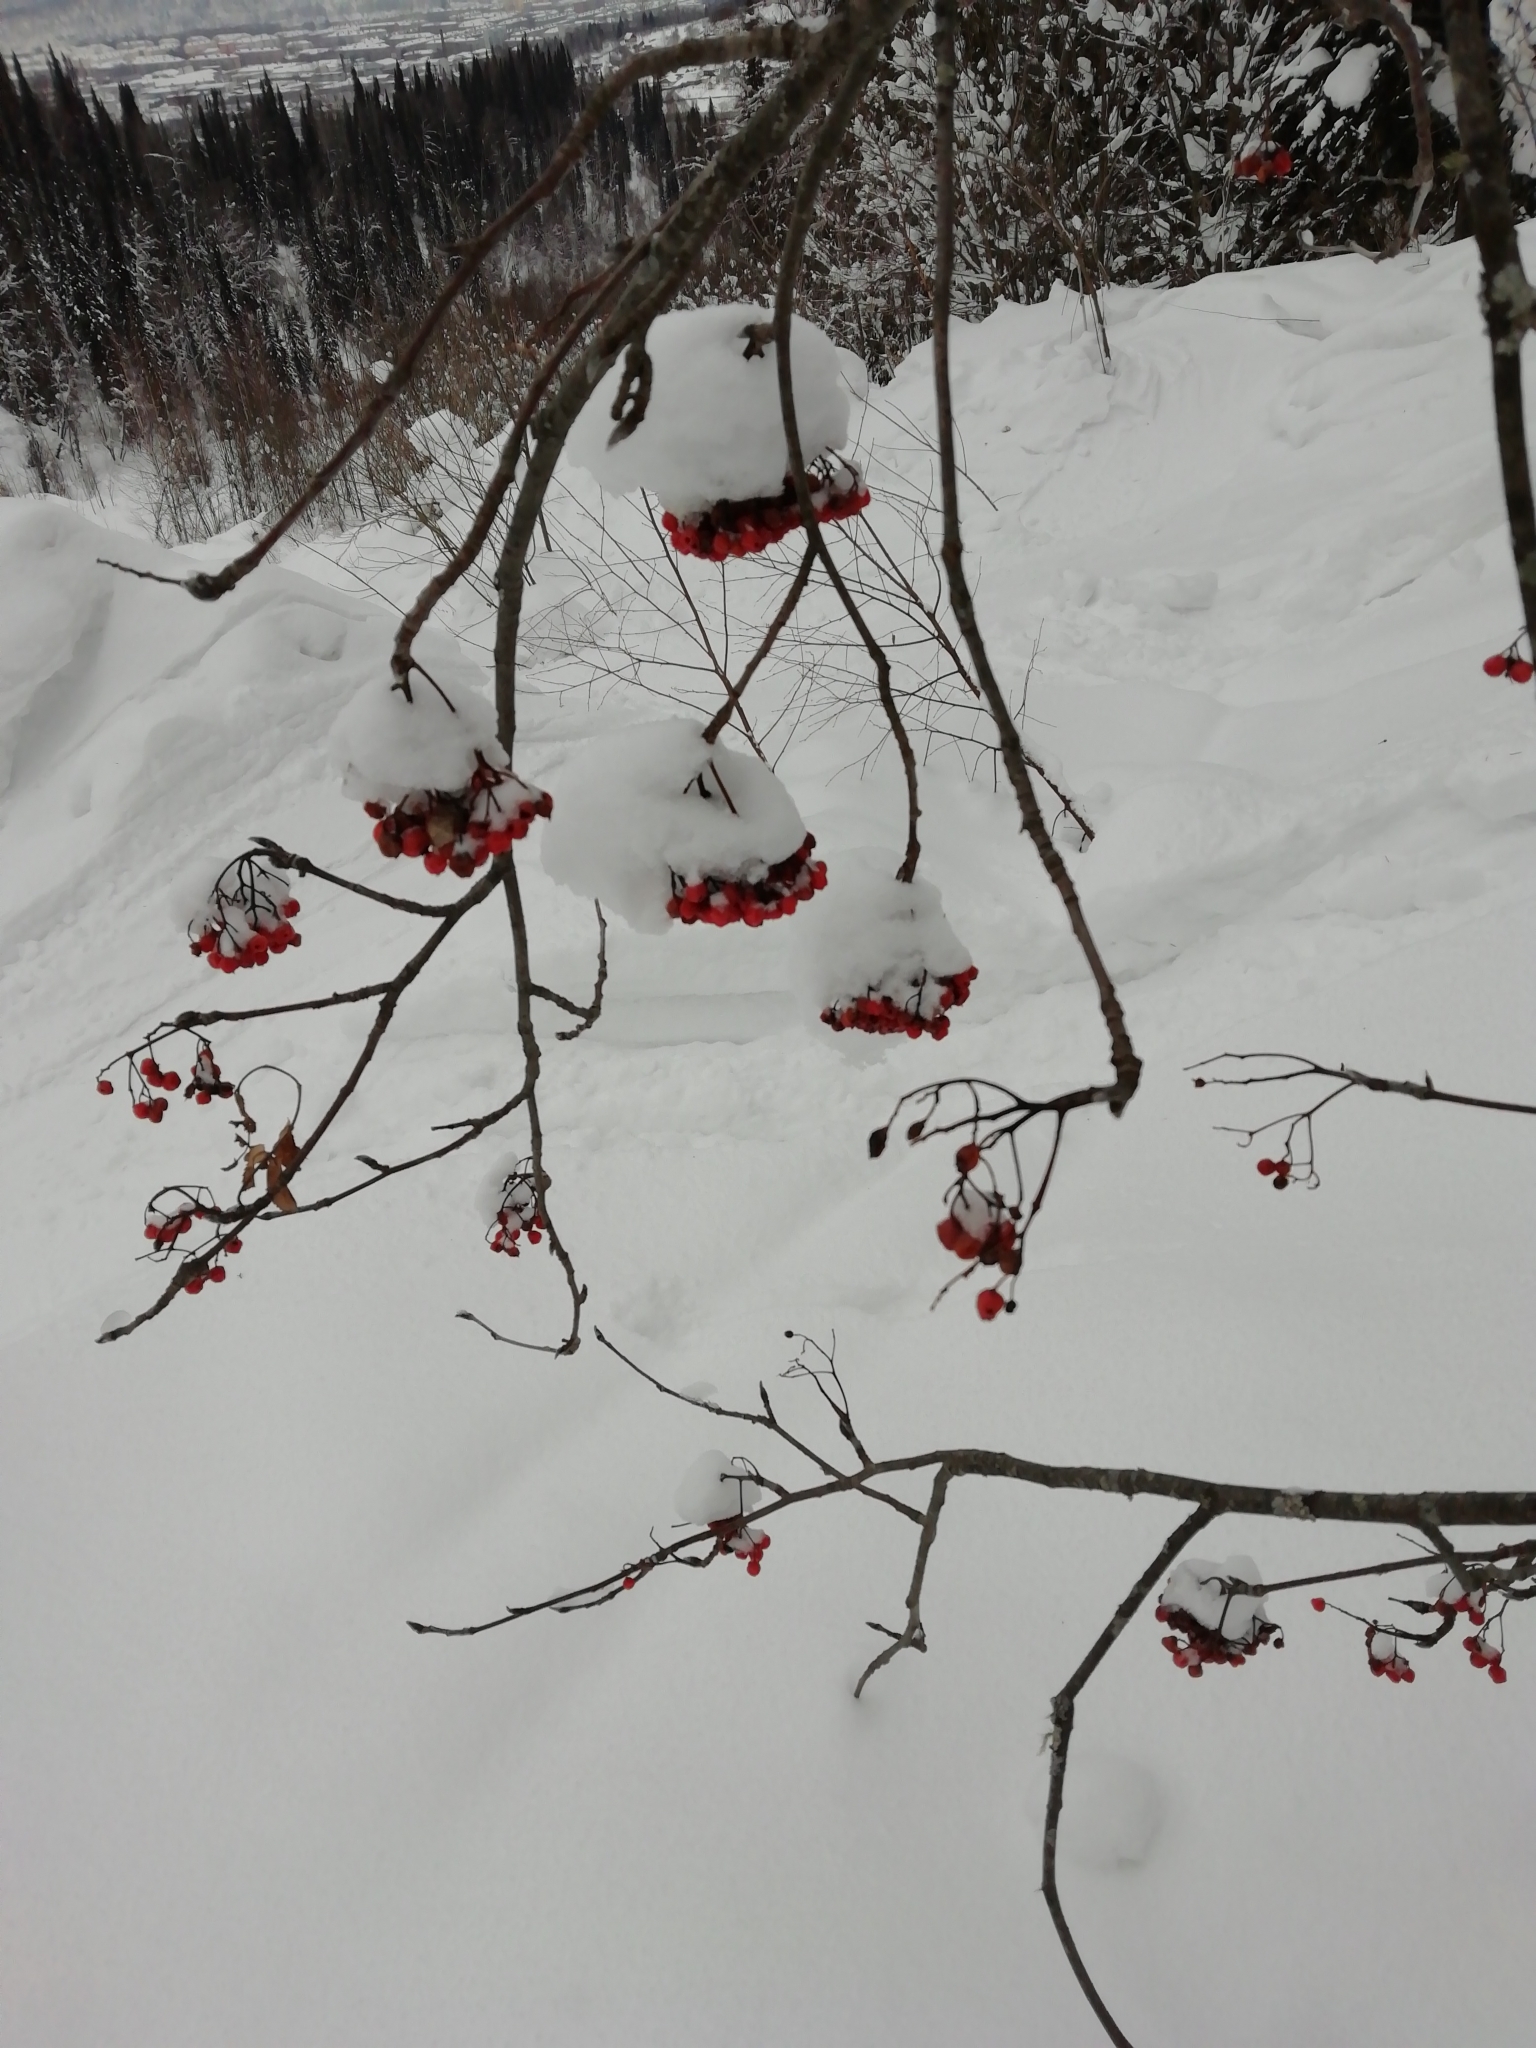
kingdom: Plantae
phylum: Tracheophyta
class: Magnoliopsida
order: Rosales
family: Rosaceae
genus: Sorbus
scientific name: Sorbus aucuparia
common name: Rowan
